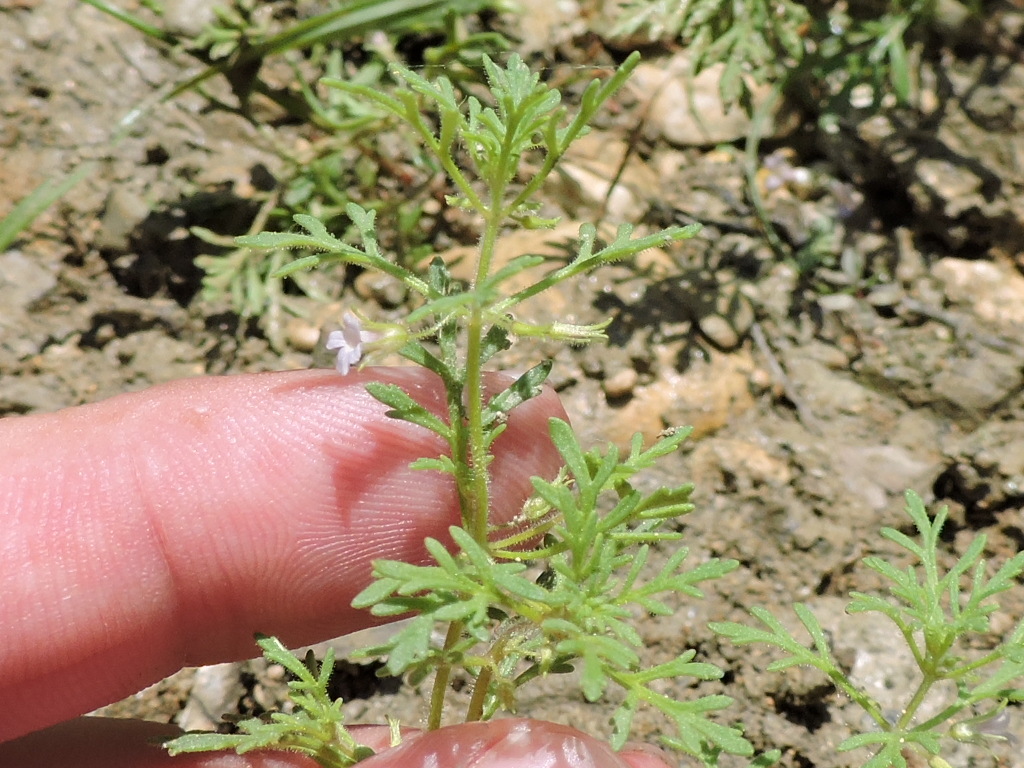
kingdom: Plantae
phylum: Tracheophyta
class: Magnoliopsida
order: Lamiales
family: Plantaginaceae
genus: Leucospora
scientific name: Leucospora multifida
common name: Narrow-leaf paleseed
